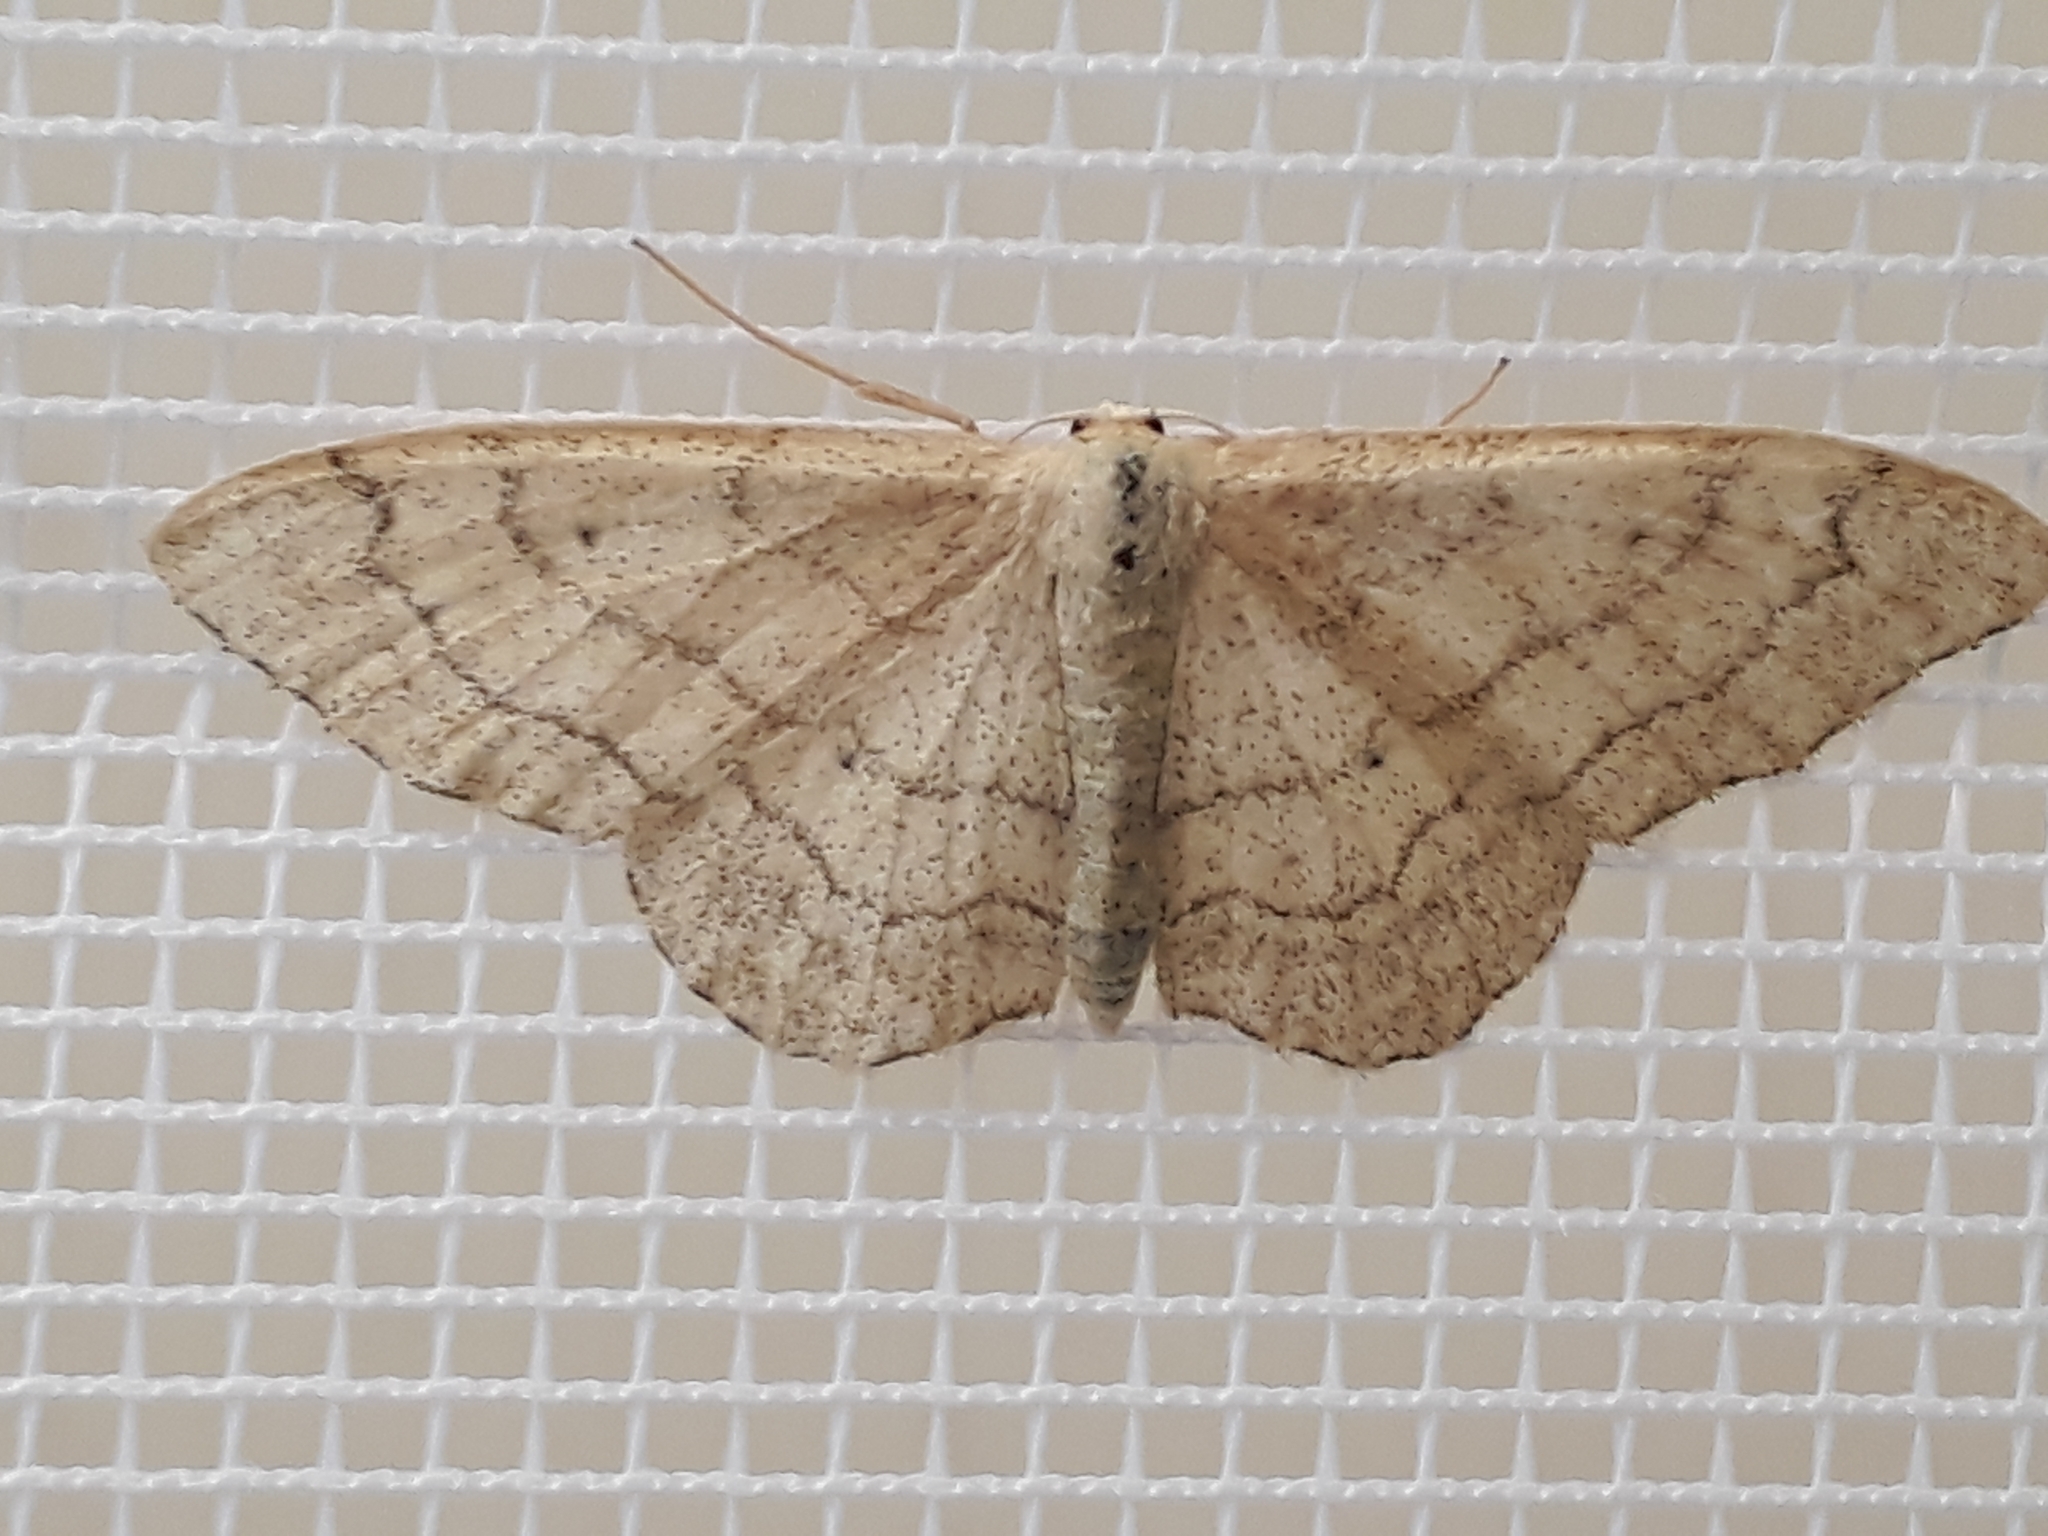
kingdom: Animalia
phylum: Arthropoda
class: Insecta
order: Lepidoptera
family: Geometridae
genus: Idaea
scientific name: Idaea aversata
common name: Riband wave
